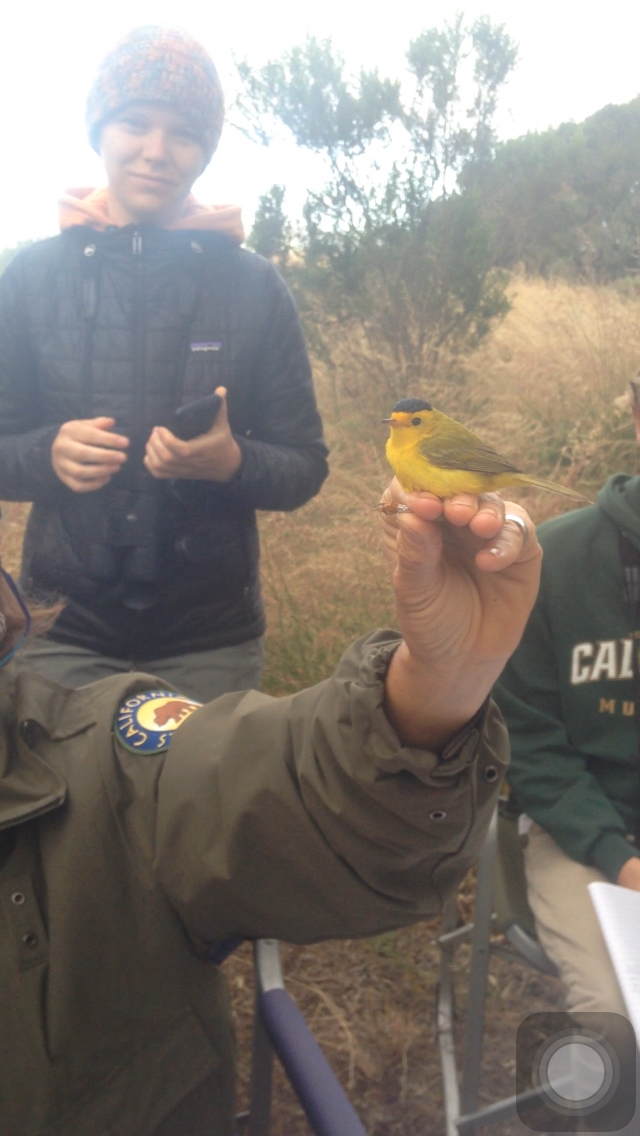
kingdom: Animalia
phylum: Chordata
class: Aves
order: Passeriformes
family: Parulidae
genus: Cardellina
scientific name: Cardellina pusilla
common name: Wilson's warbler
